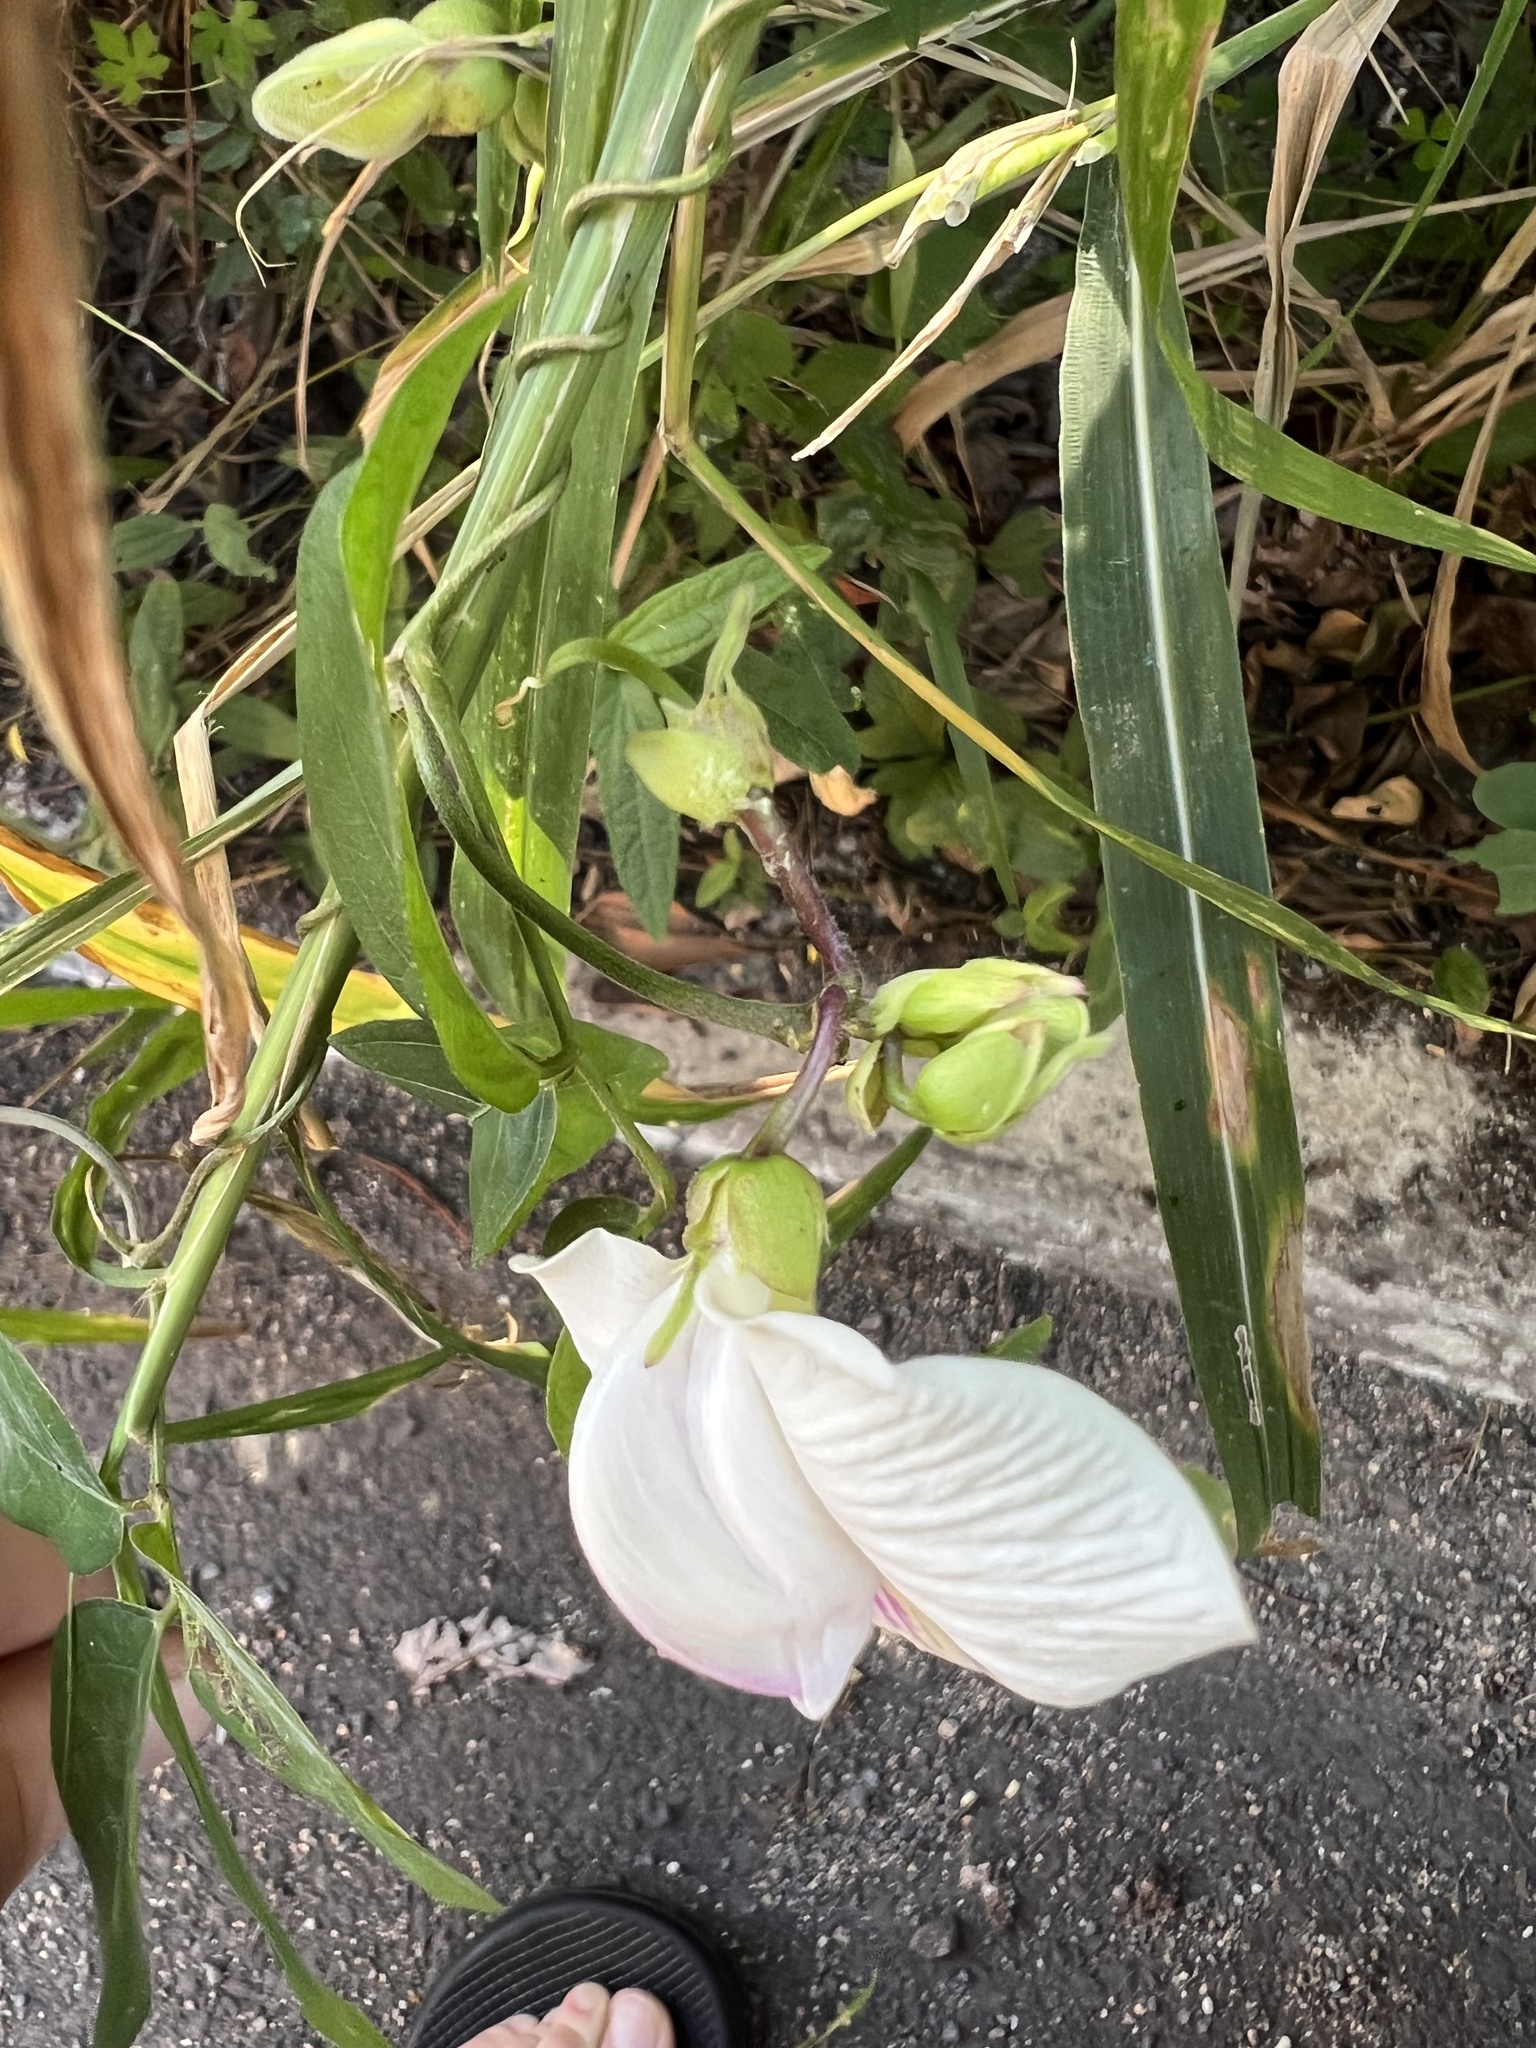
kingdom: Plantae
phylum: Tracheophyta
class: Magnoliopsida
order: Fabales
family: Fabaceae
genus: Centrosema
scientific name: Centrosema pubescens
